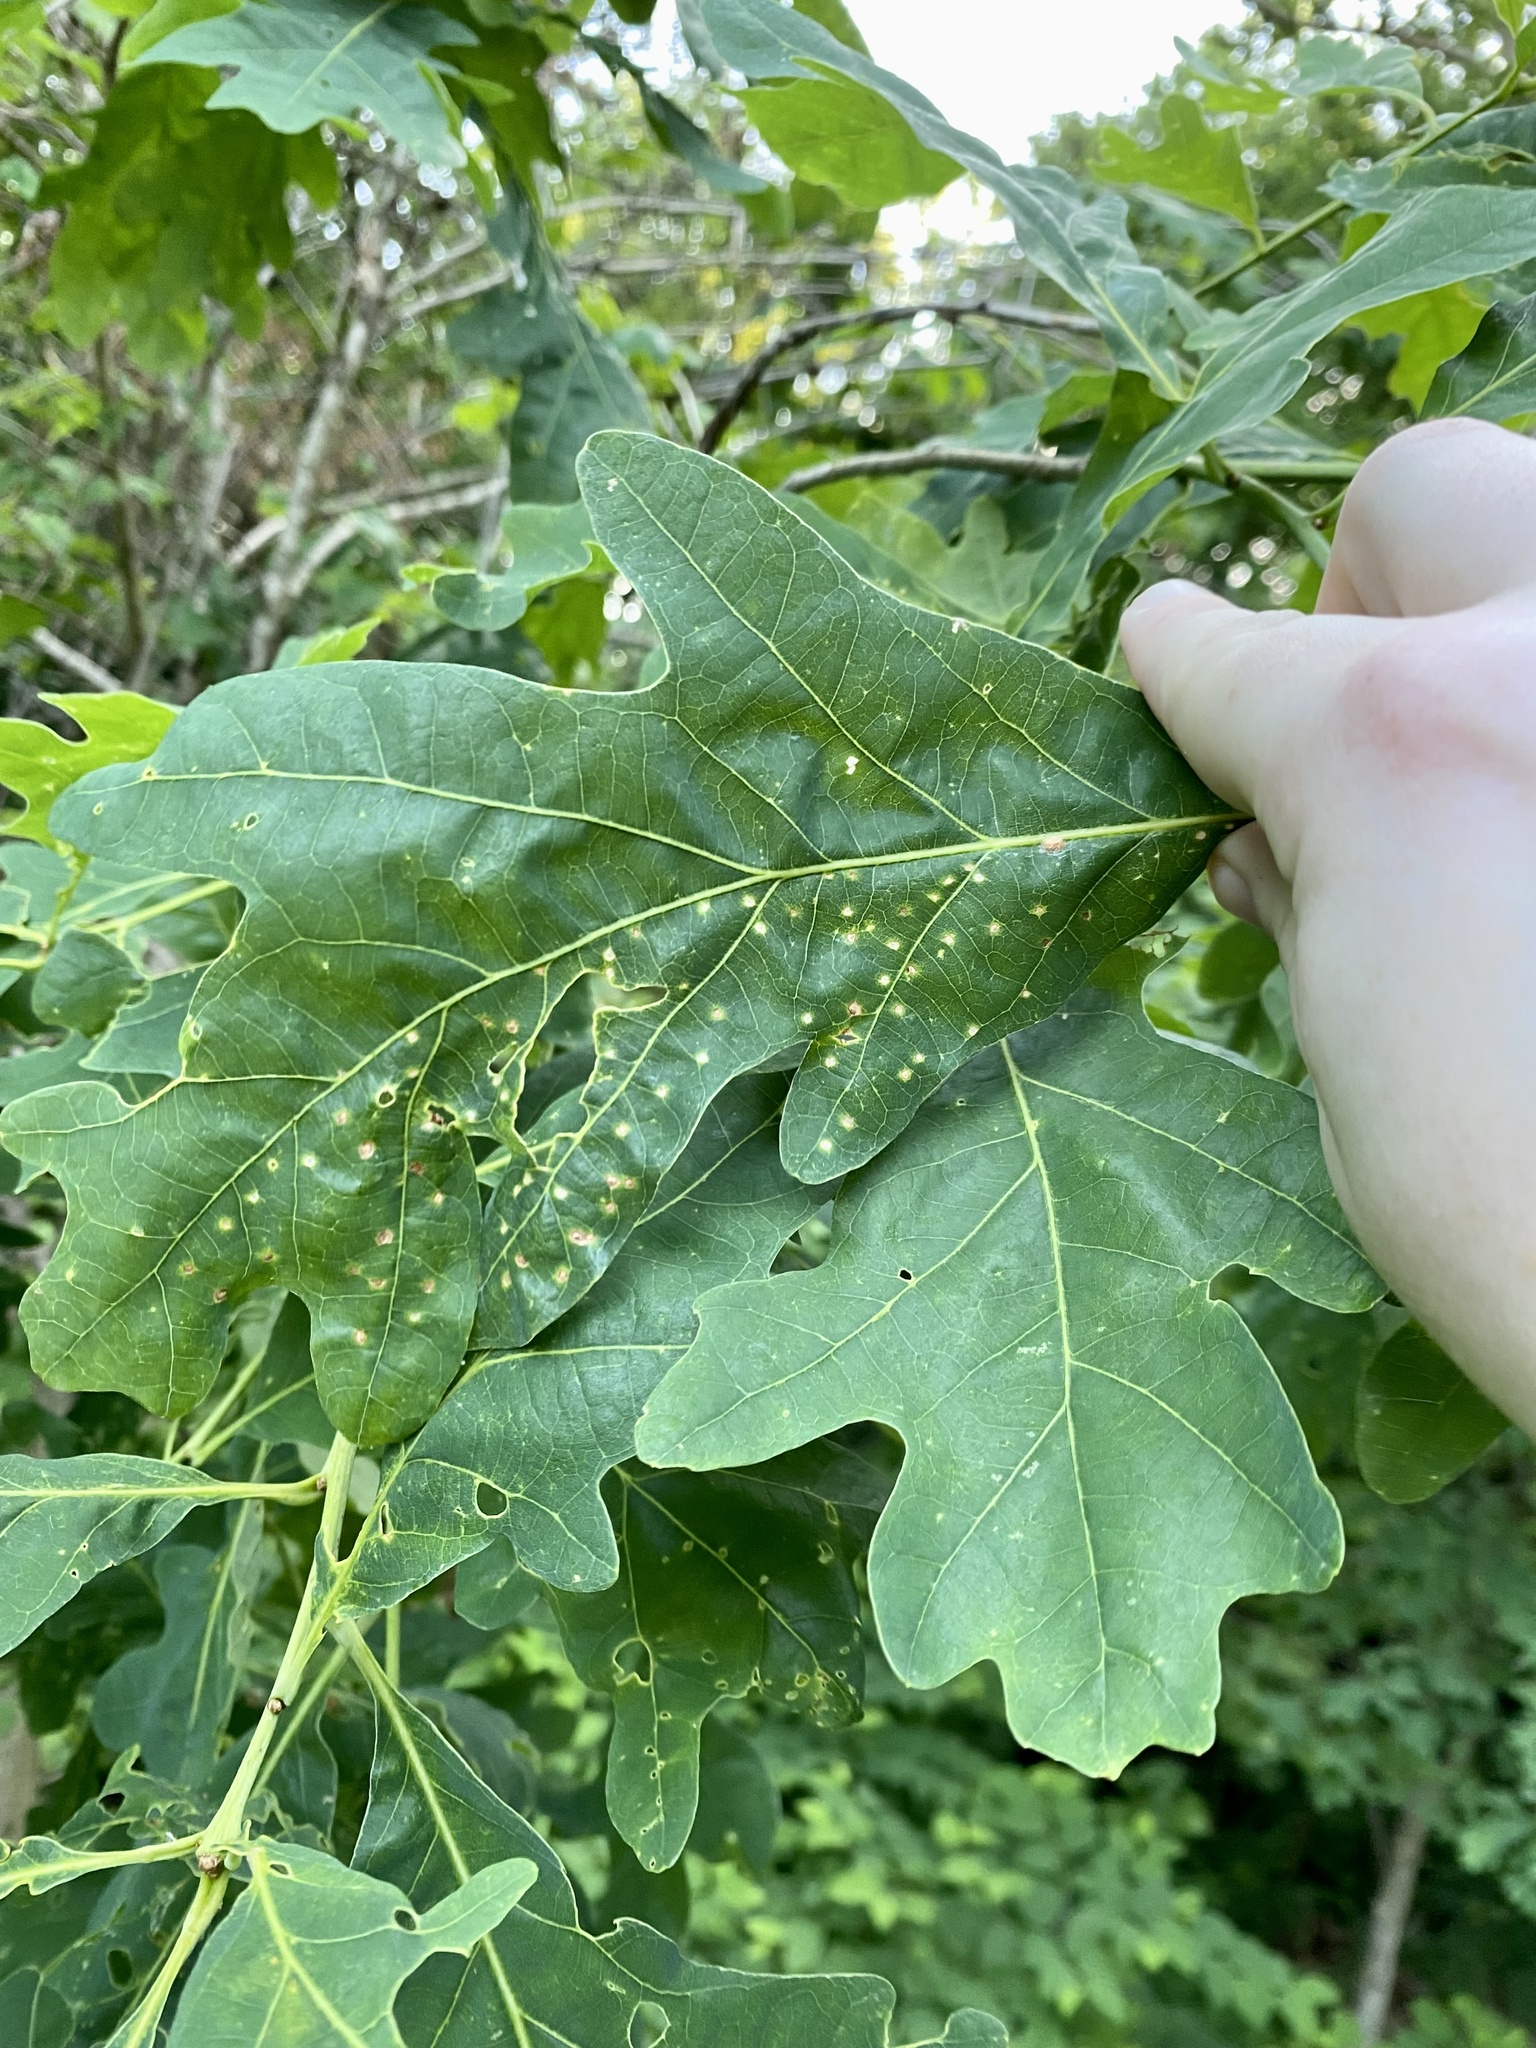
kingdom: Animalia
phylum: Arthropoda
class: Insecta
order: Hymenoptera
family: Cynipidae
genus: Neuroterus
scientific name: Neuroterus
